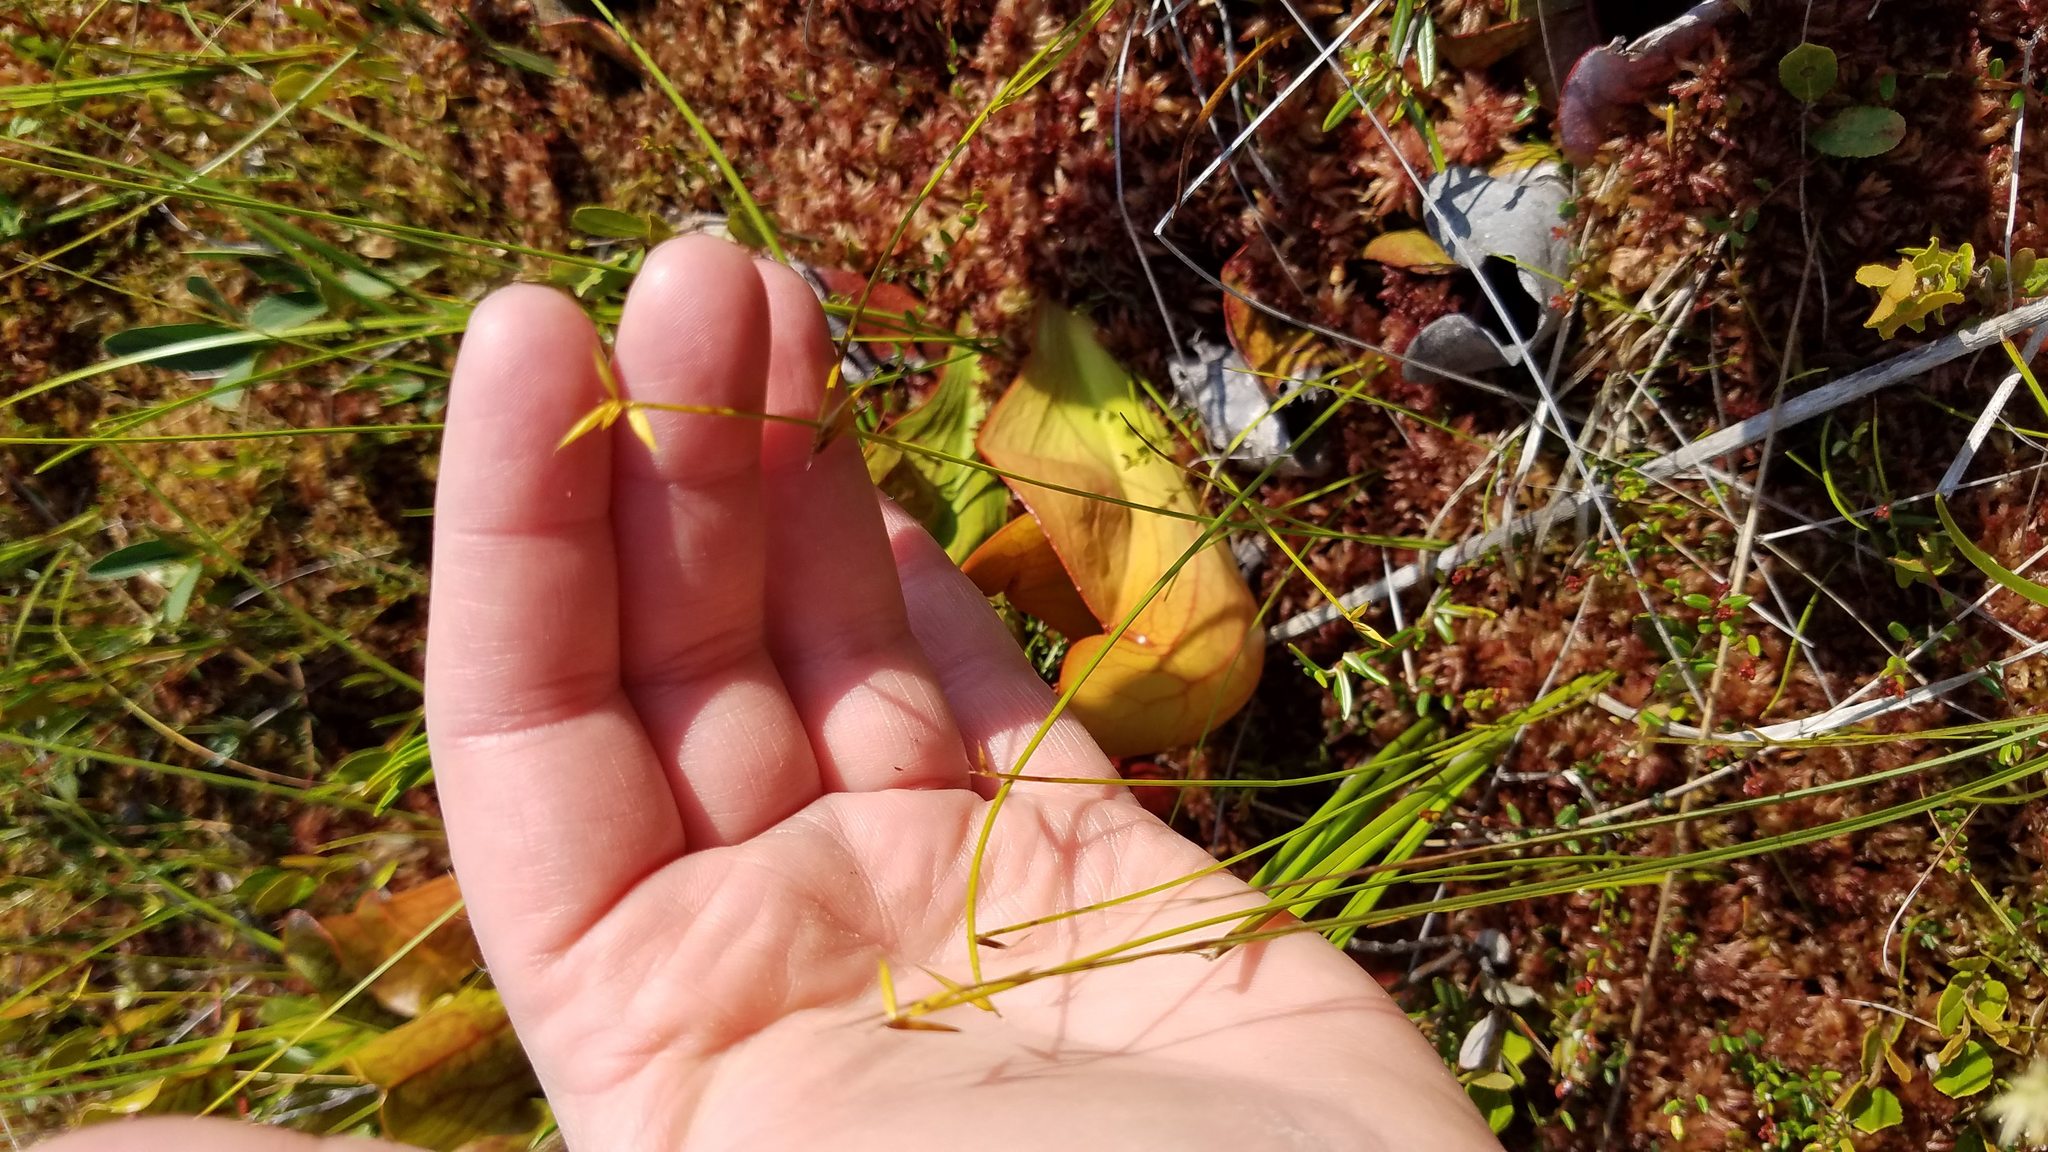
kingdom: Plantae
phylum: Tracheophyta
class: Liliopsida
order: Poales
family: Cyperaceae
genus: Carex
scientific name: Carex pauciflora
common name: Few-flowered sedge
